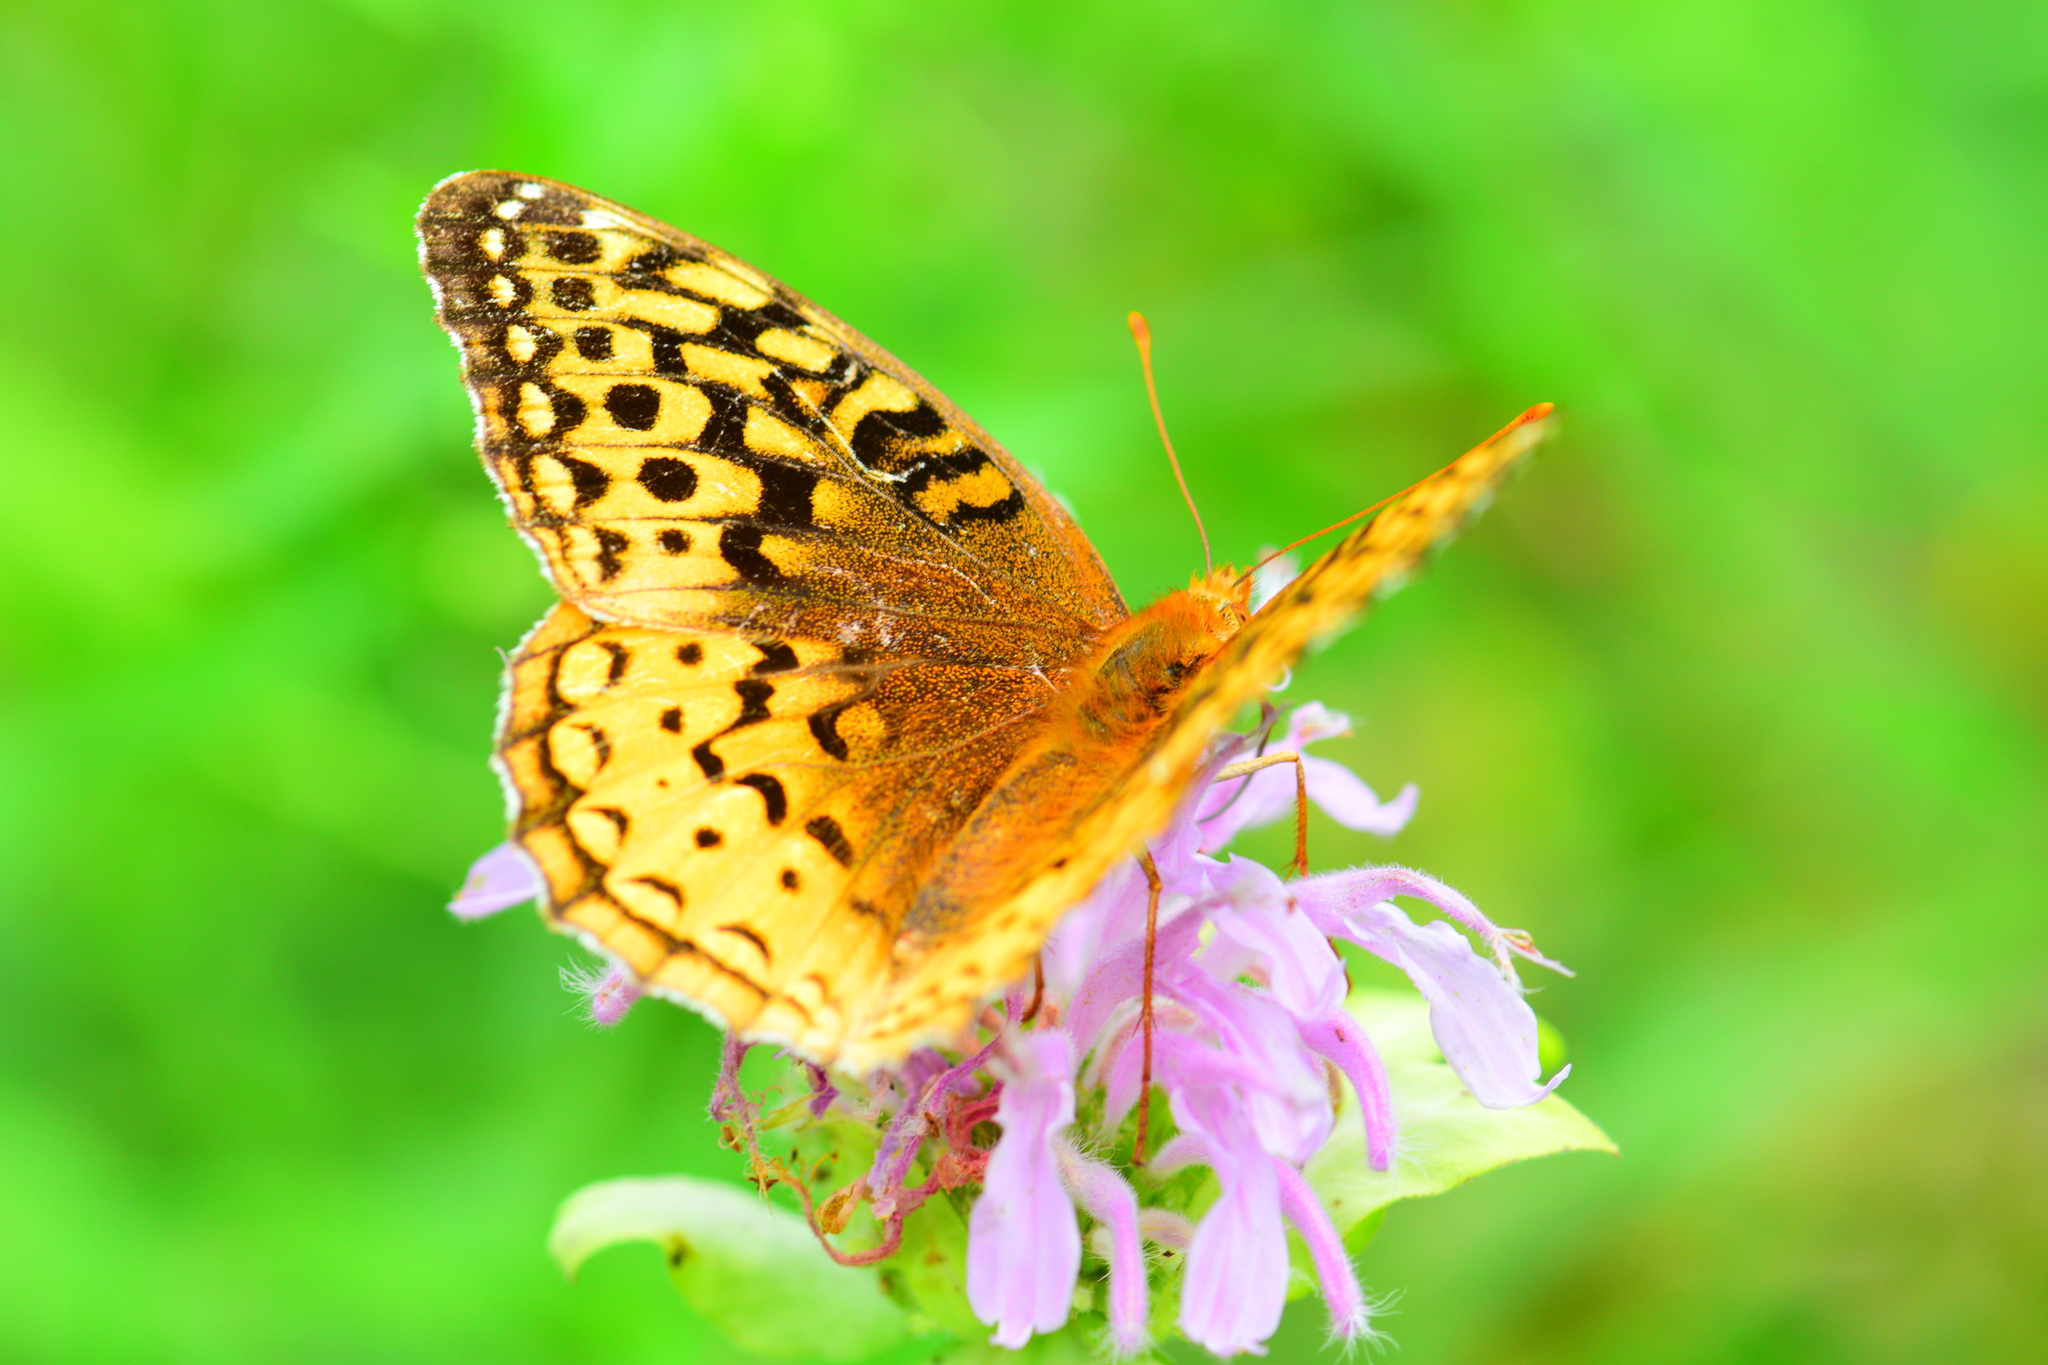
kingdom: Animalia
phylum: Arthropoda
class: Insecta
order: Lepidoptera
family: Nymphalidae
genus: Speyeria
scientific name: Speyeria cybele
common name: Great spangled fritillary
